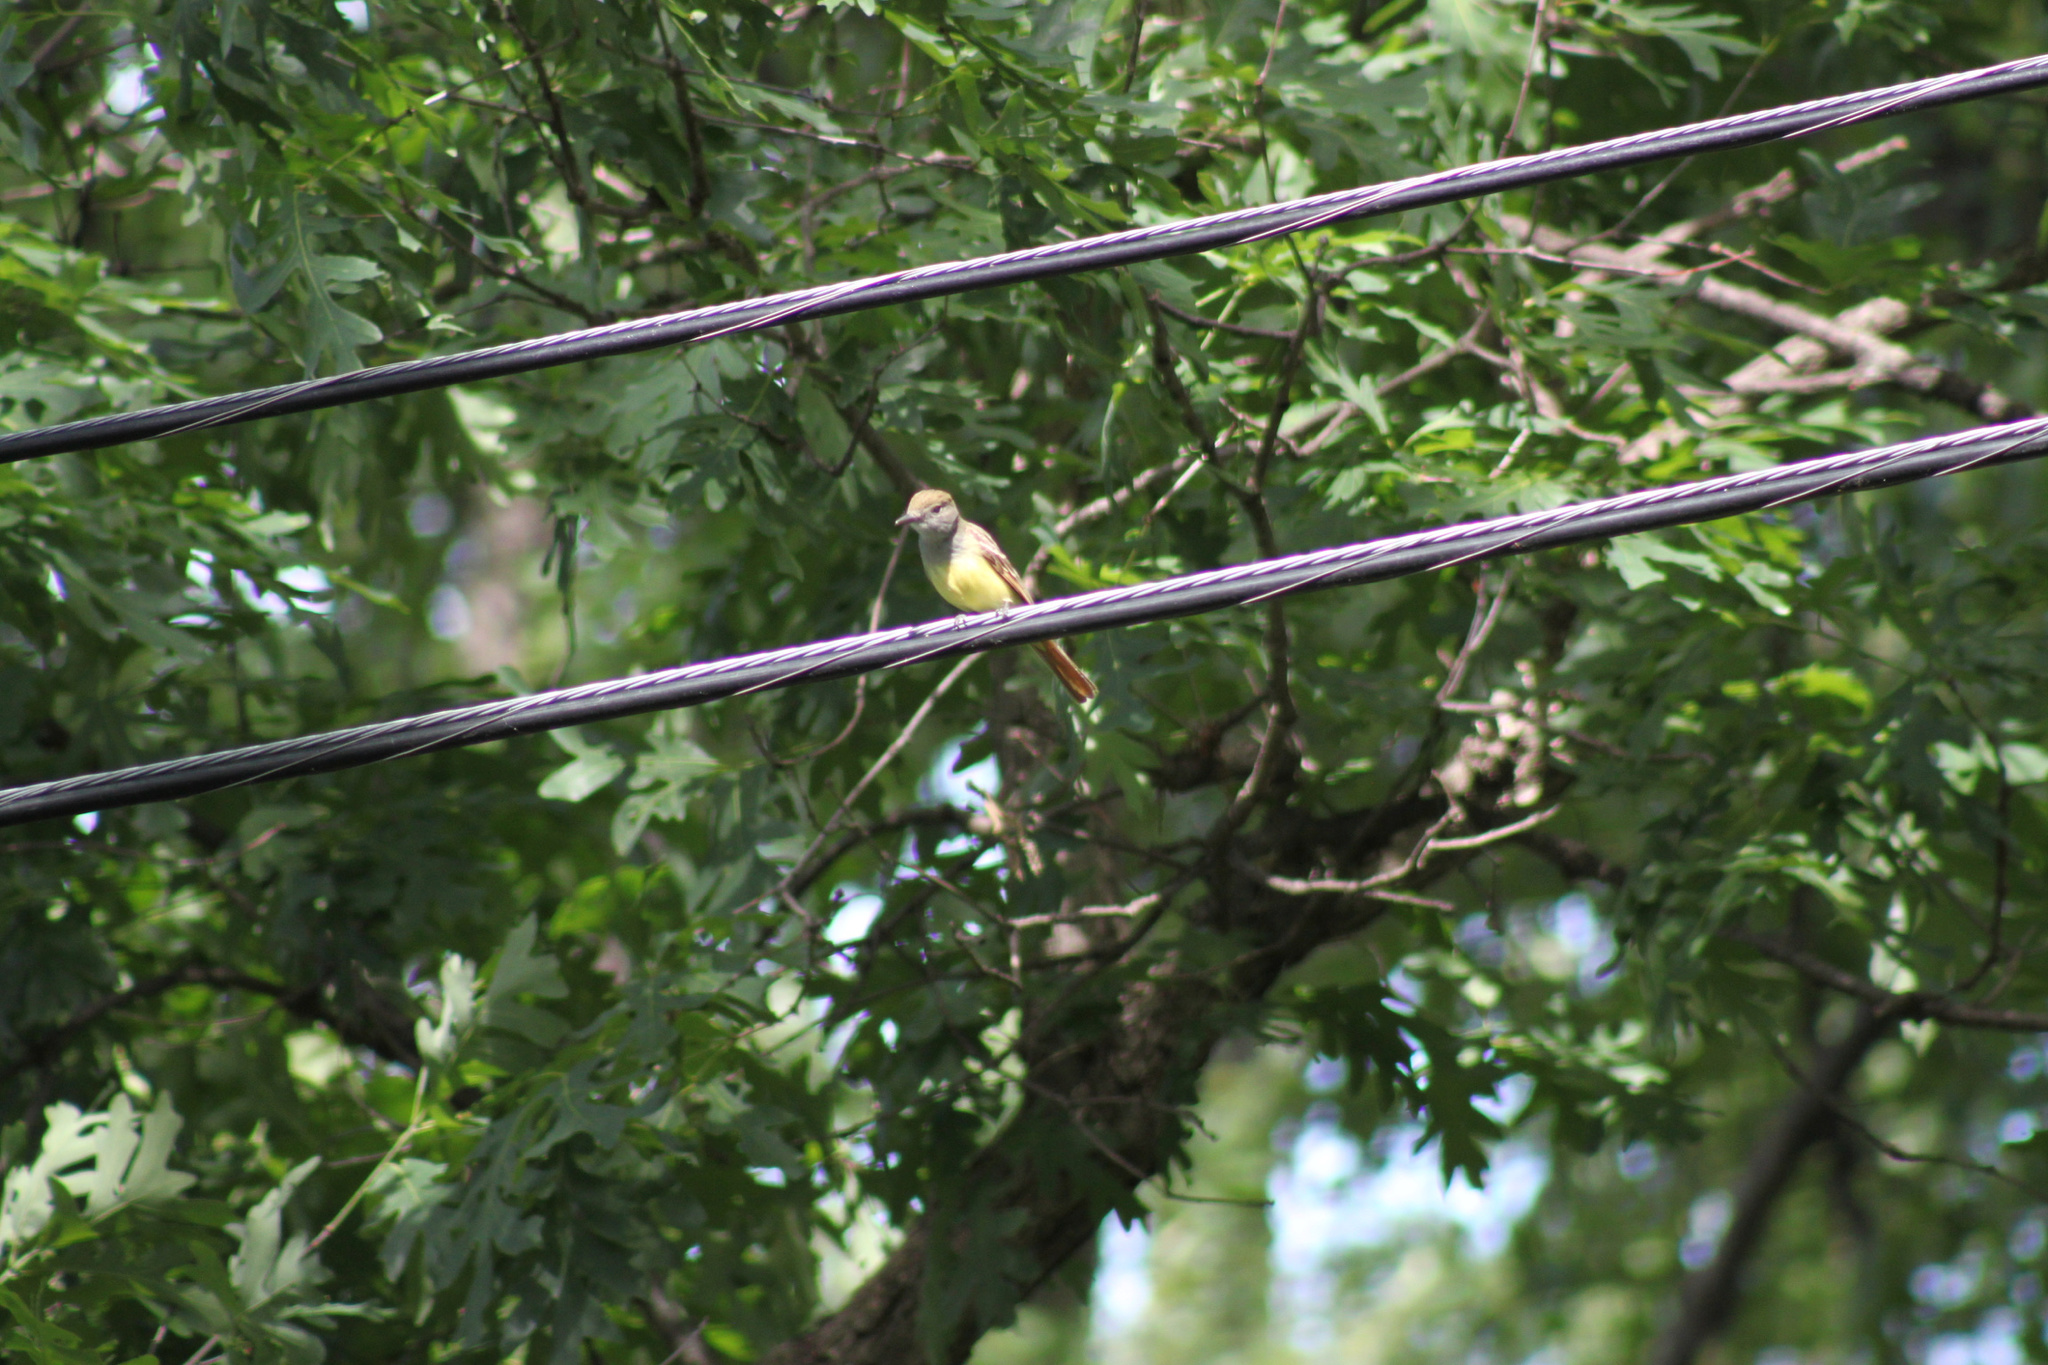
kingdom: Animalia
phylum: Chordata
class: Aves
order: Passeriformes
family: Tyrannidae
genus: Myiarchus
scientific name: Myiarchus crinitus
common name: Great crested flycatcher
